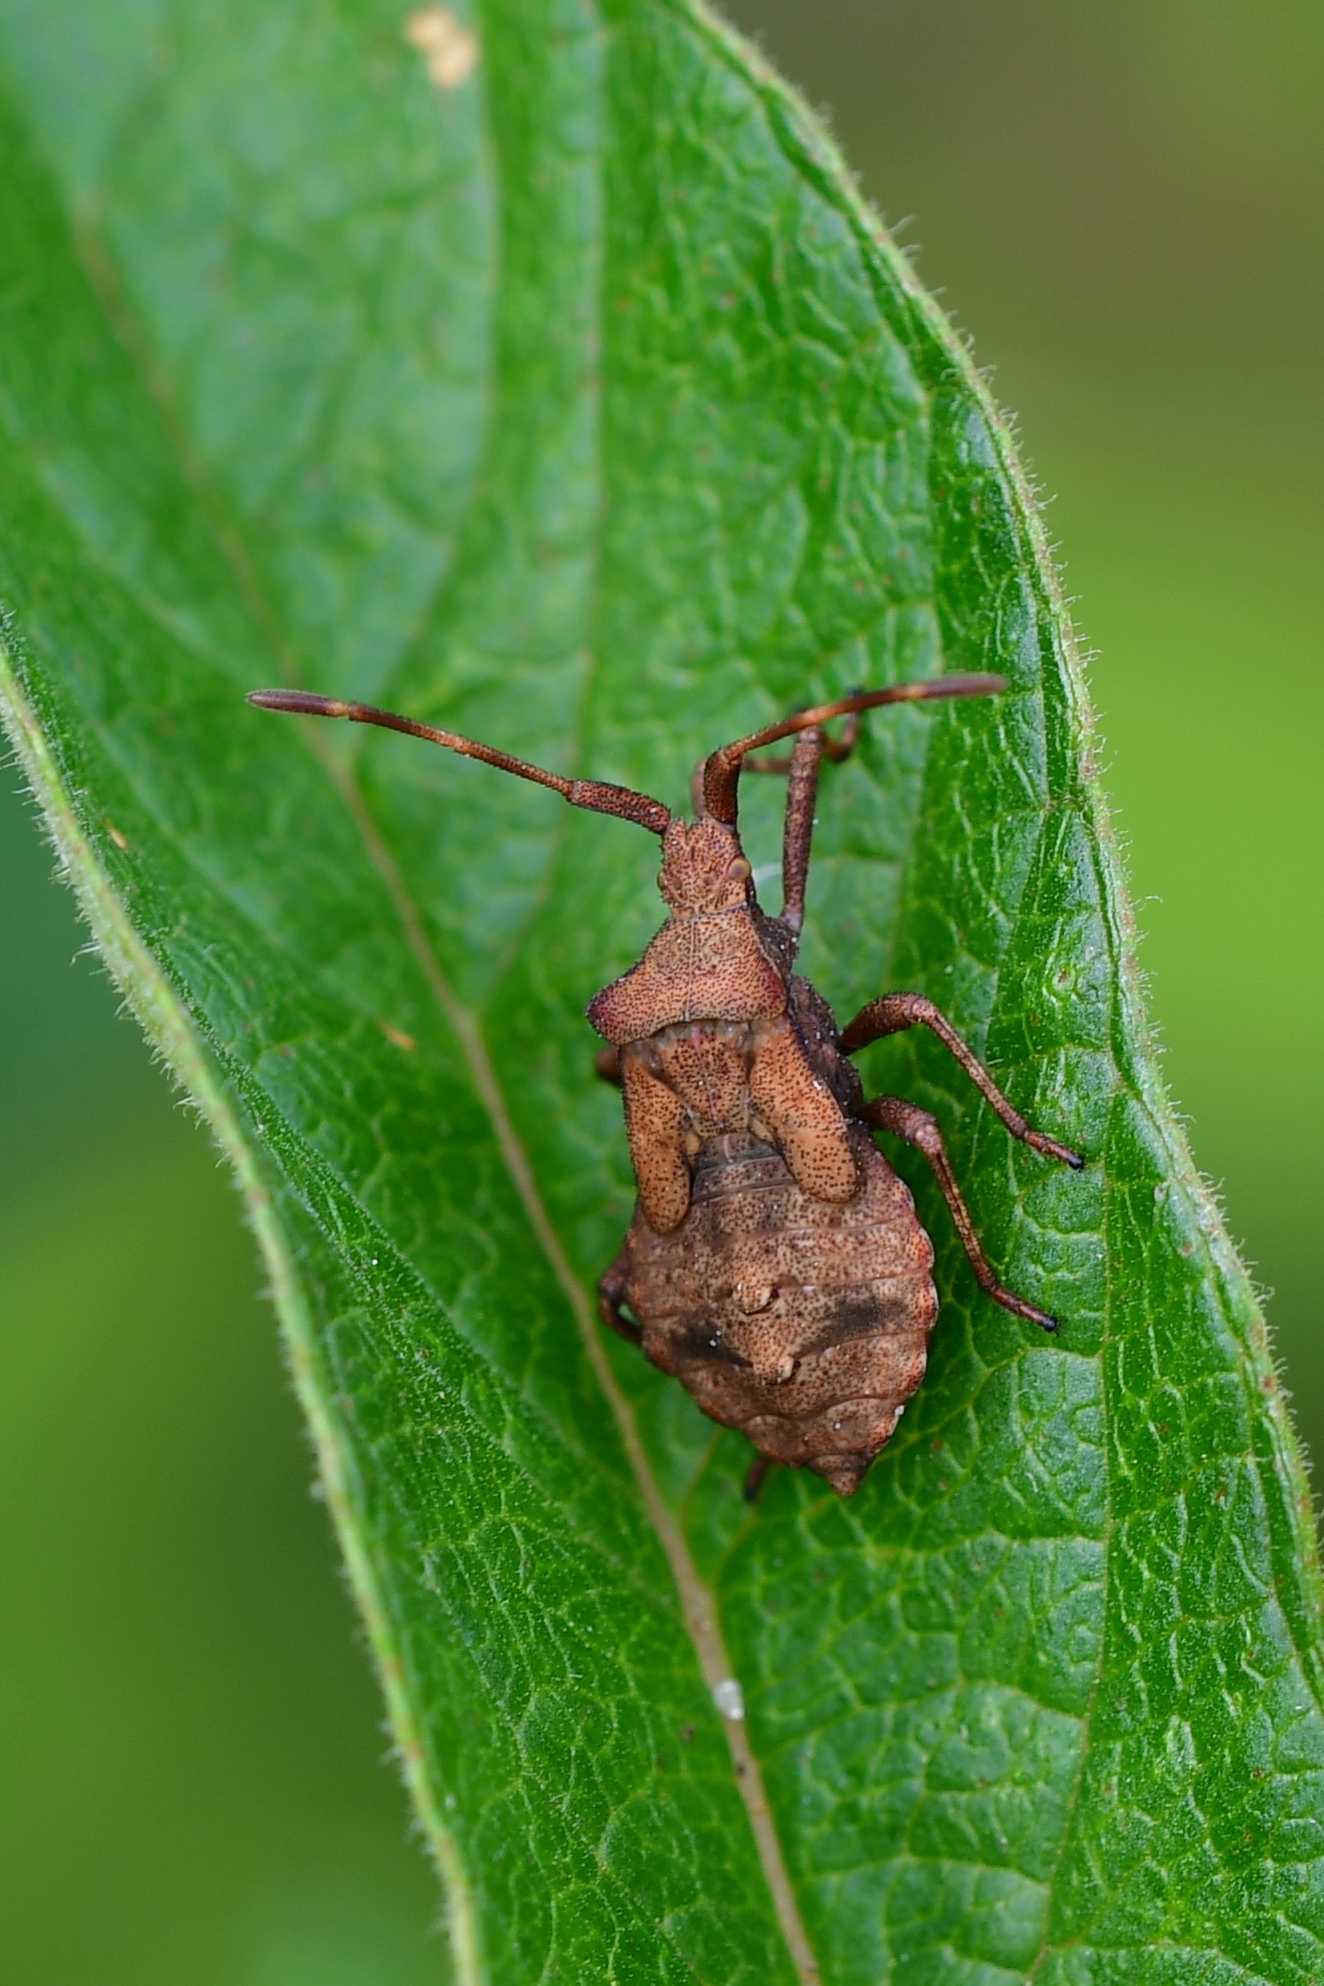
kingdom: Animalia
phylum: Arthropoda
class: Insecta
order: Hemiptera
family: Coreidae
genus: Coreus
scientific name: Coreus marginatus
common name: Dock bug
